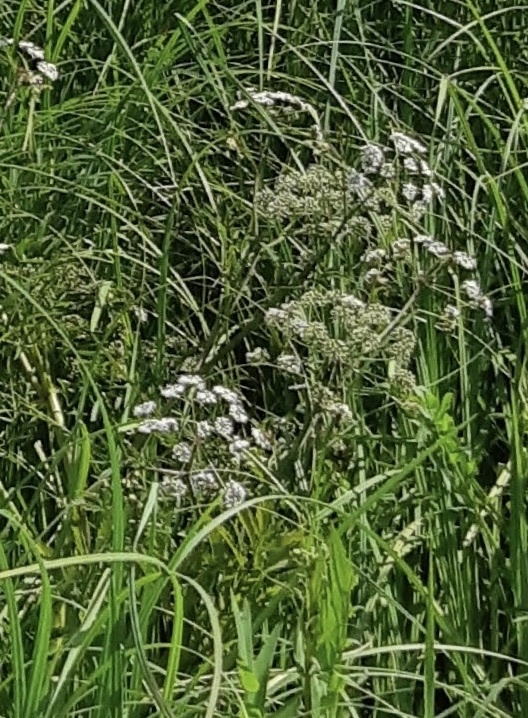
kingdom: Plantae
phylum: Tracheophyta
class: Magnoliopsida
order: Apiales
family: Apiaceae
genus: Cicuta
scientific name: Cicuta virosa
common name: Cowbane
